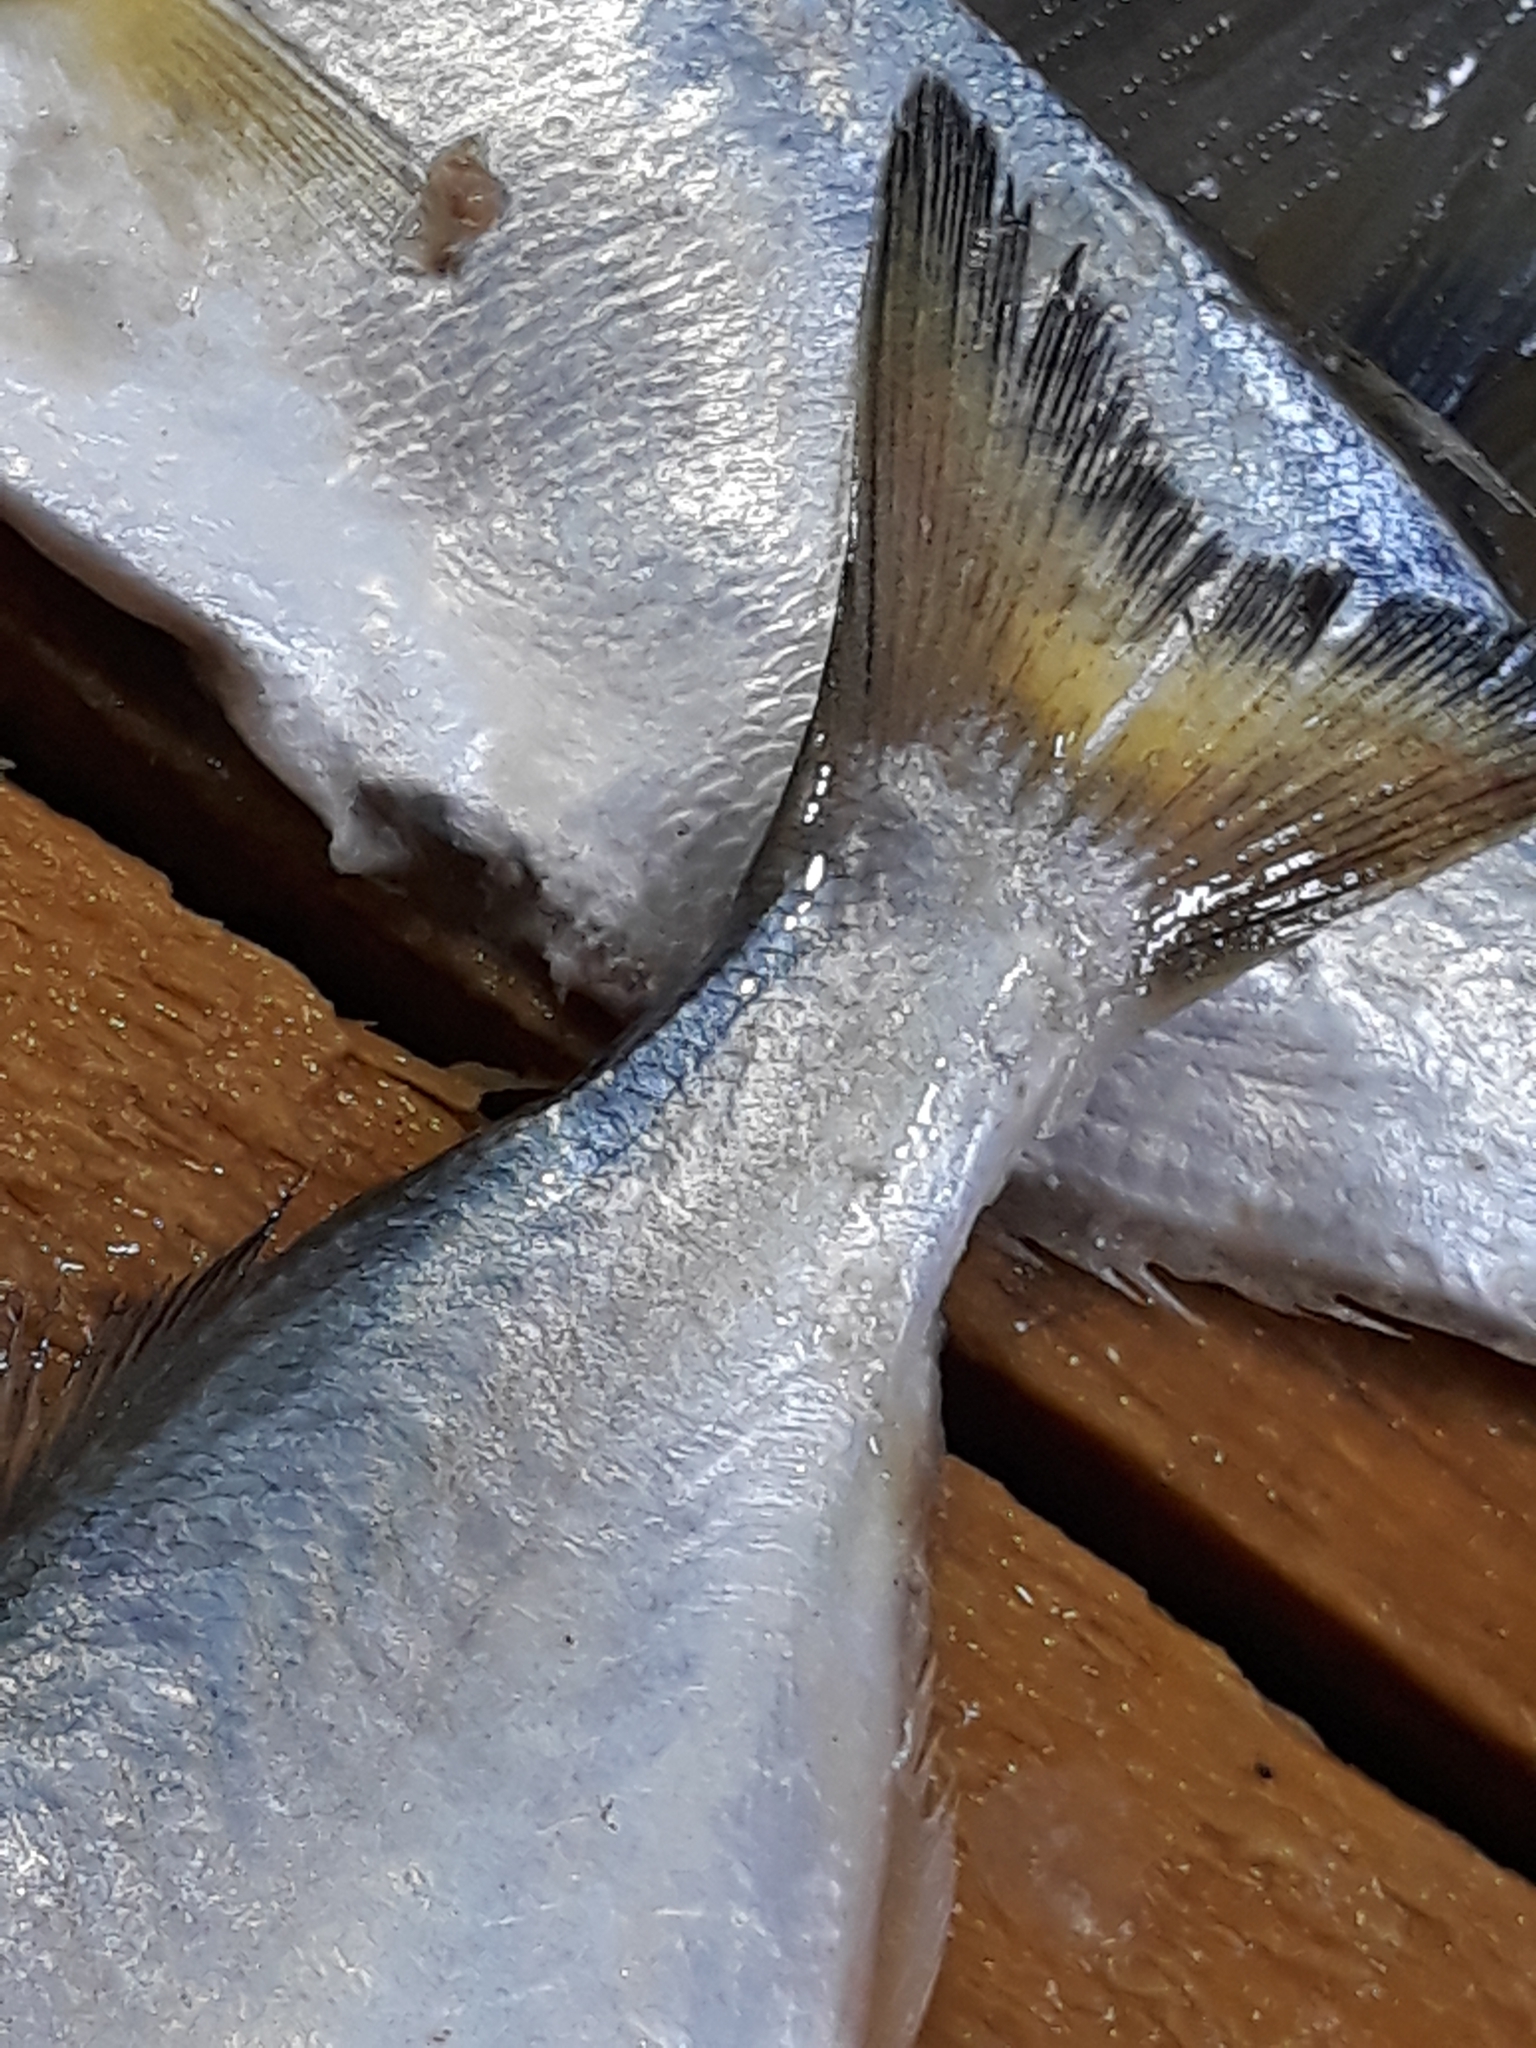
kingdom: Animalia
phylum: Chordata
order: Perciformes
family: Pomatomidae
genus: Pomatomus
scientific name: Pomatomus saltatrix
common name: Bluefish
